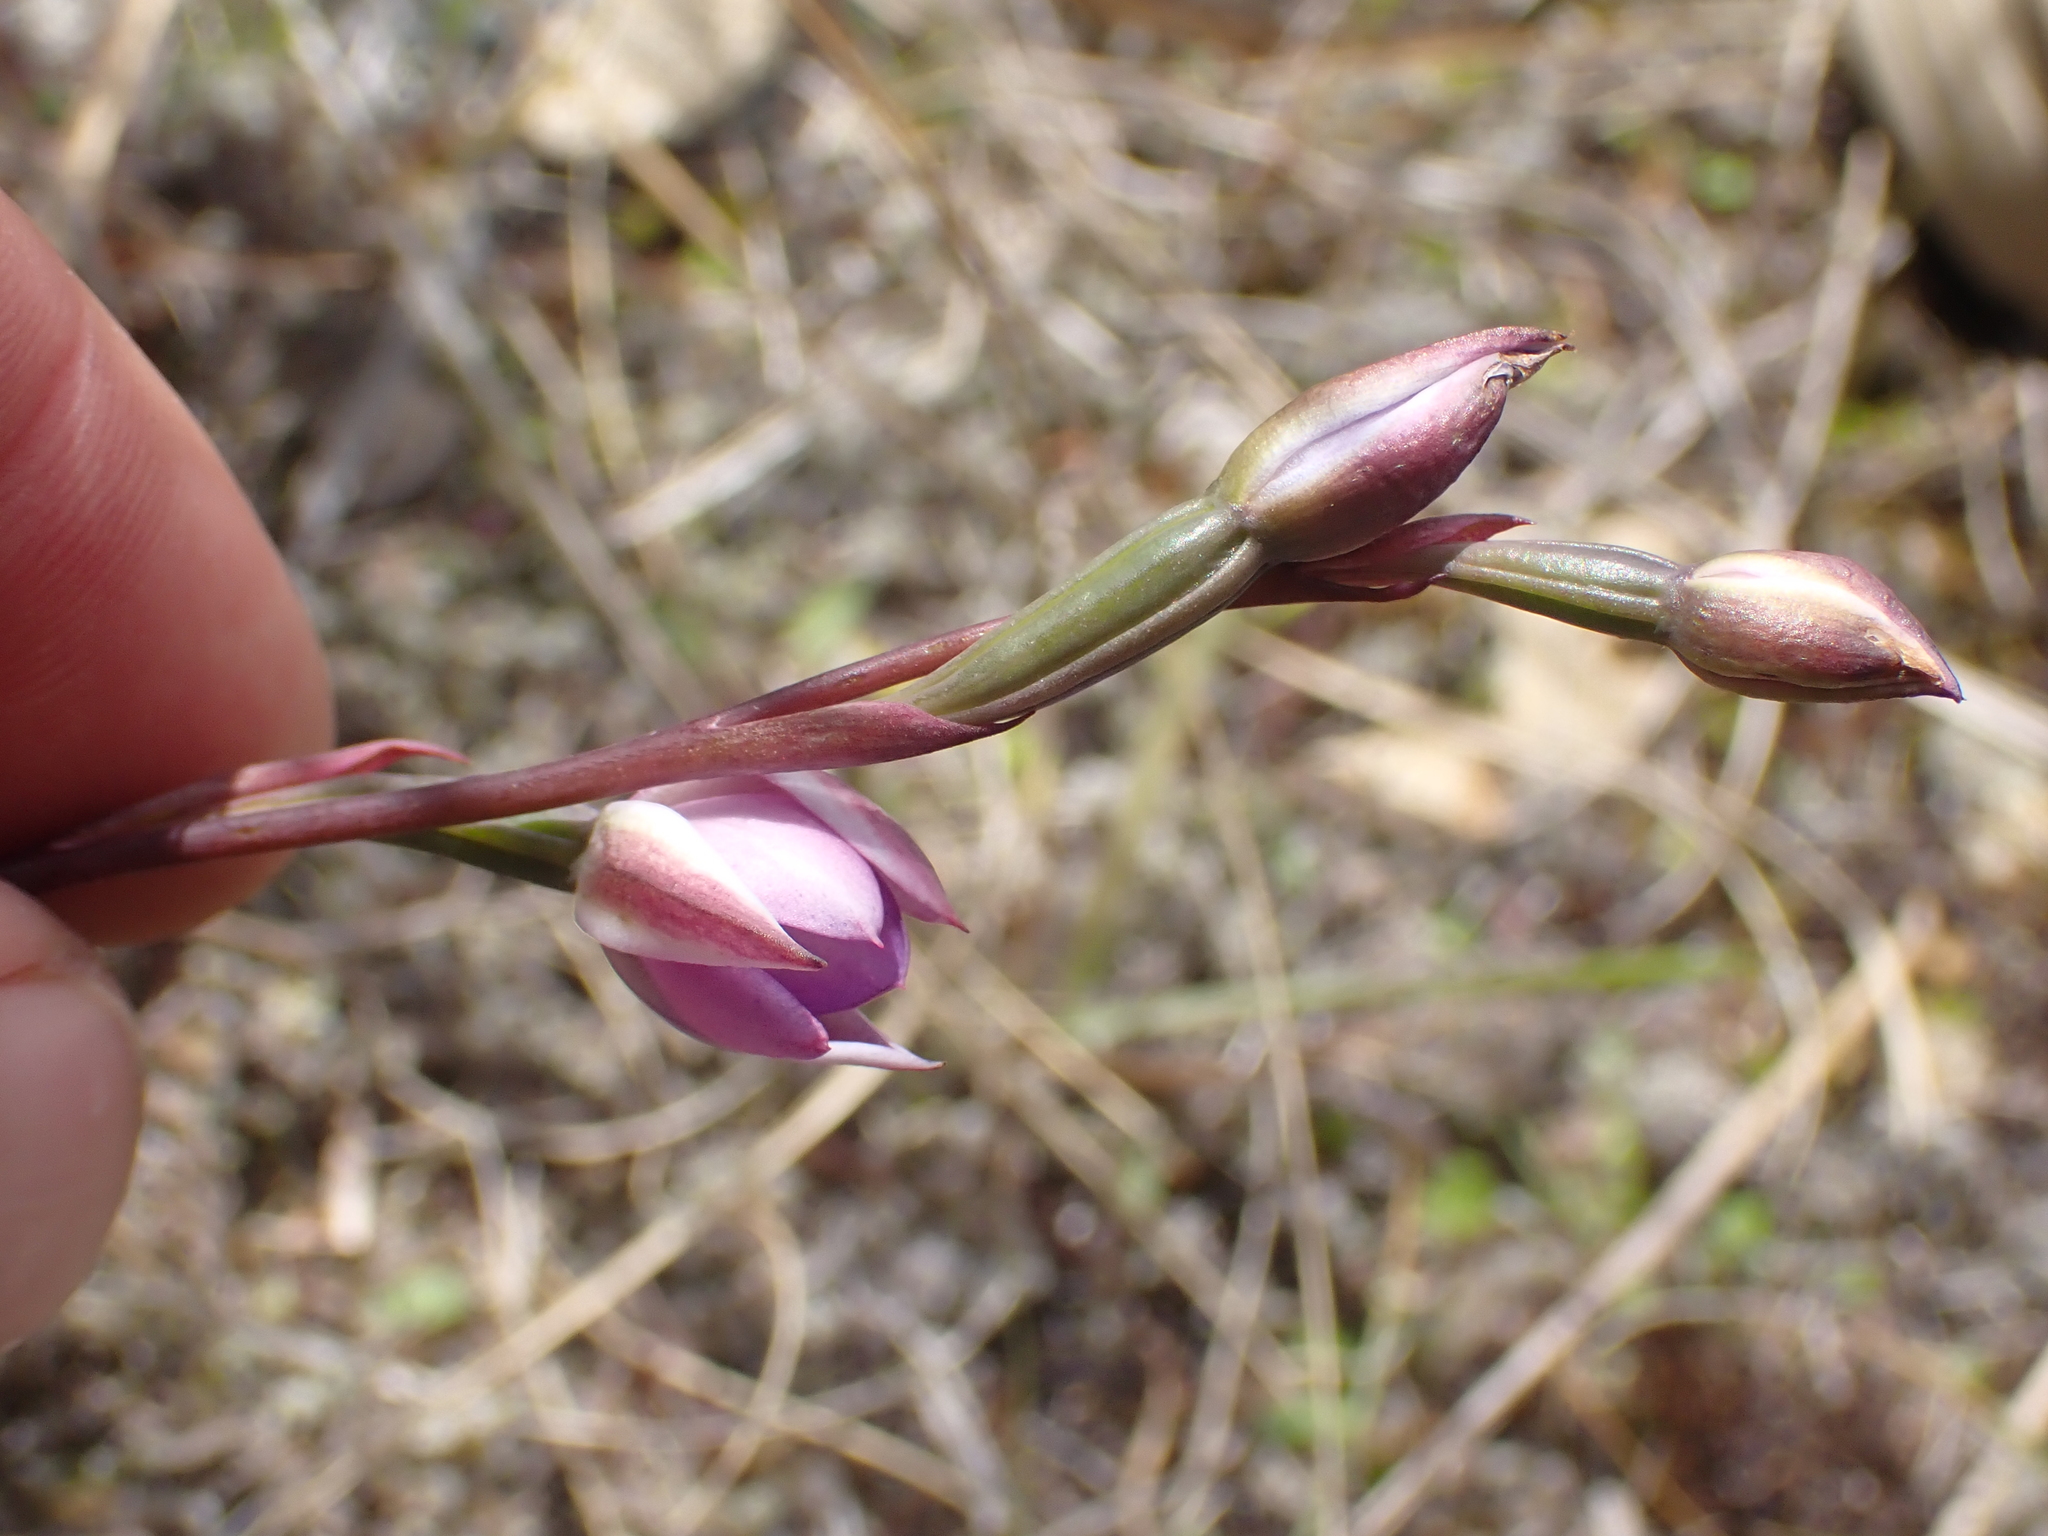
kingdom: Plantae
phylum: Tracheophyta
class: Liliopsida
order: Asparagales
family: Orchidaceae
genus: Thelymitra
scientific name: Thelymitra nervosa
